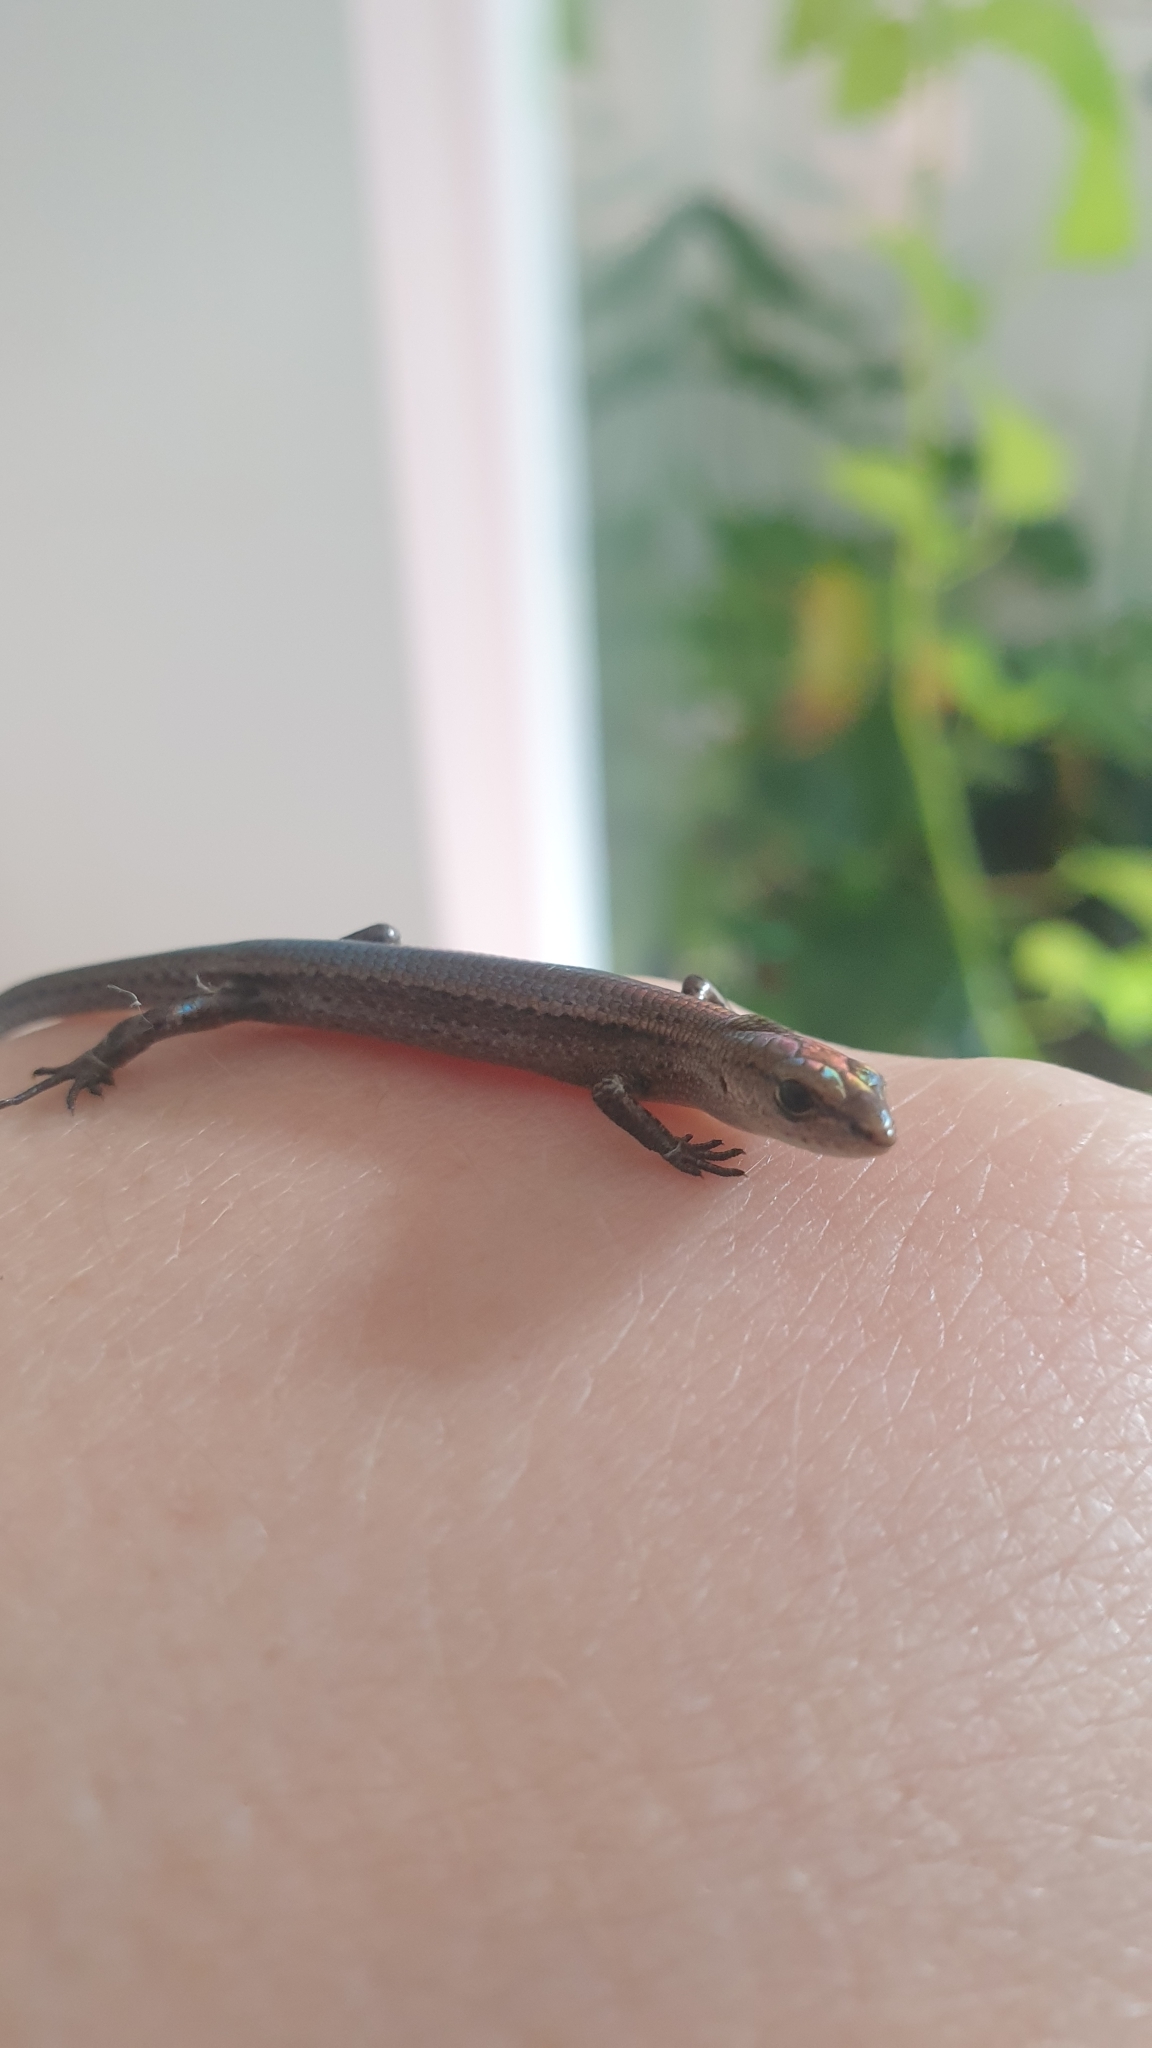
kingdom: Animalia
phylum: Chordata
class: Squamata
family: Scincidae
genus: Lampropholis
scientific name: Lampropholis delicata
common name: Plague skink
